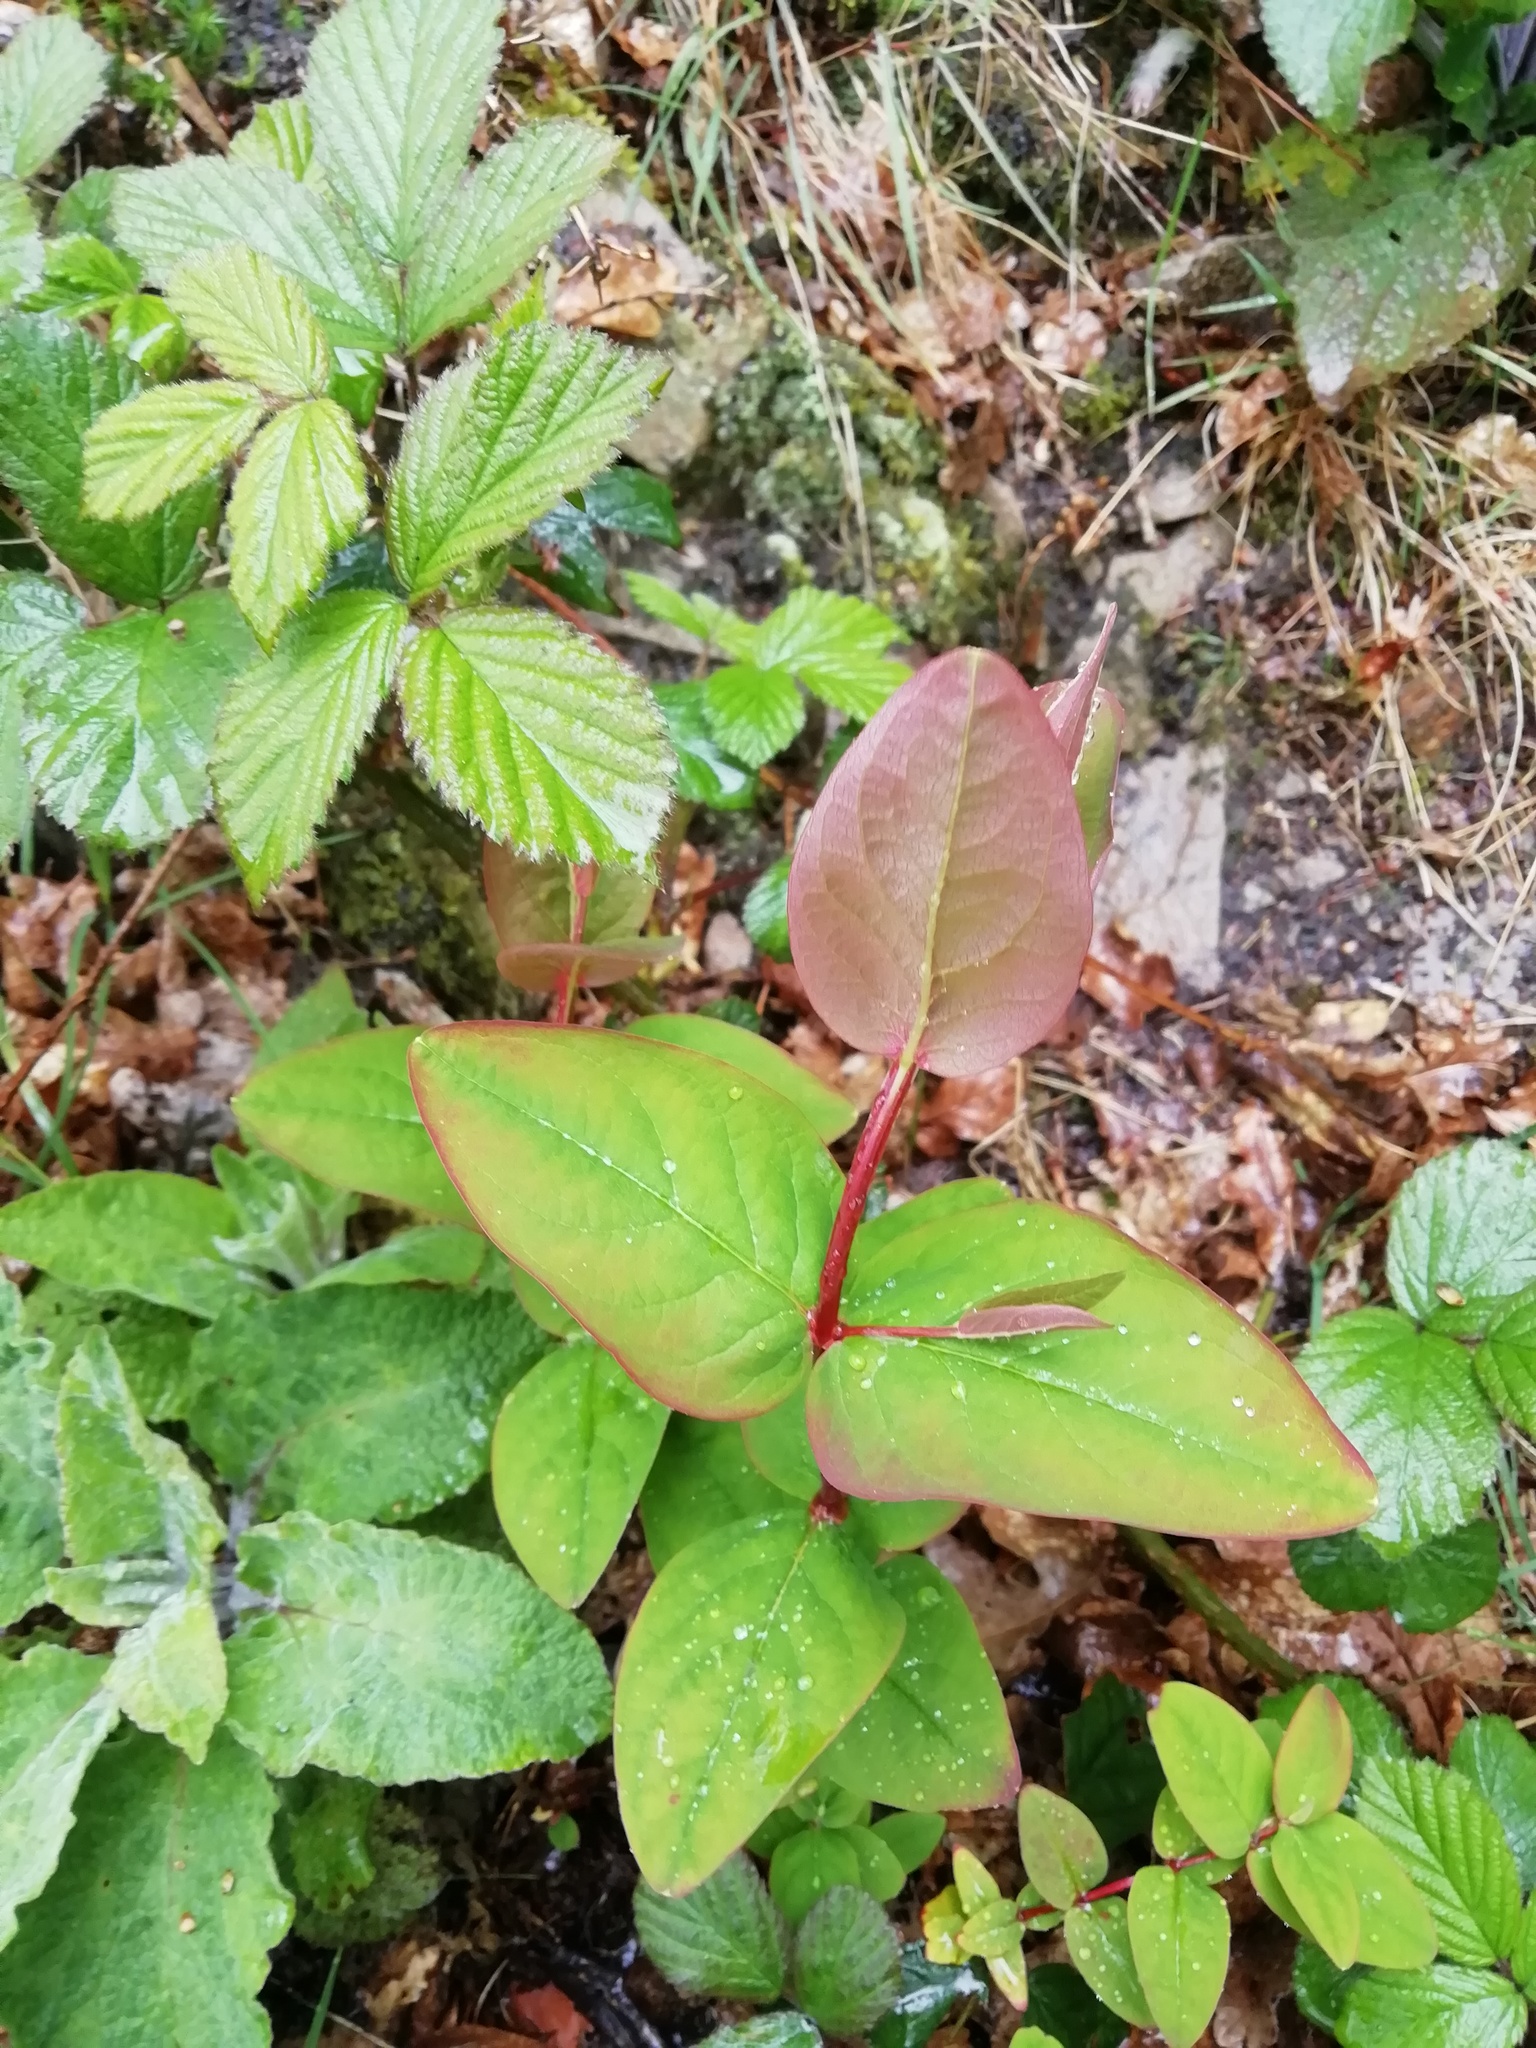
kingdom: Plantae
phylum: Tracheophyta
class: Magnoliopsida
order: Malpighiales
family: Hypericaceae
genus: Hypericum
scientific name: Hypericum androsaemum
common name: Sweet-amber
